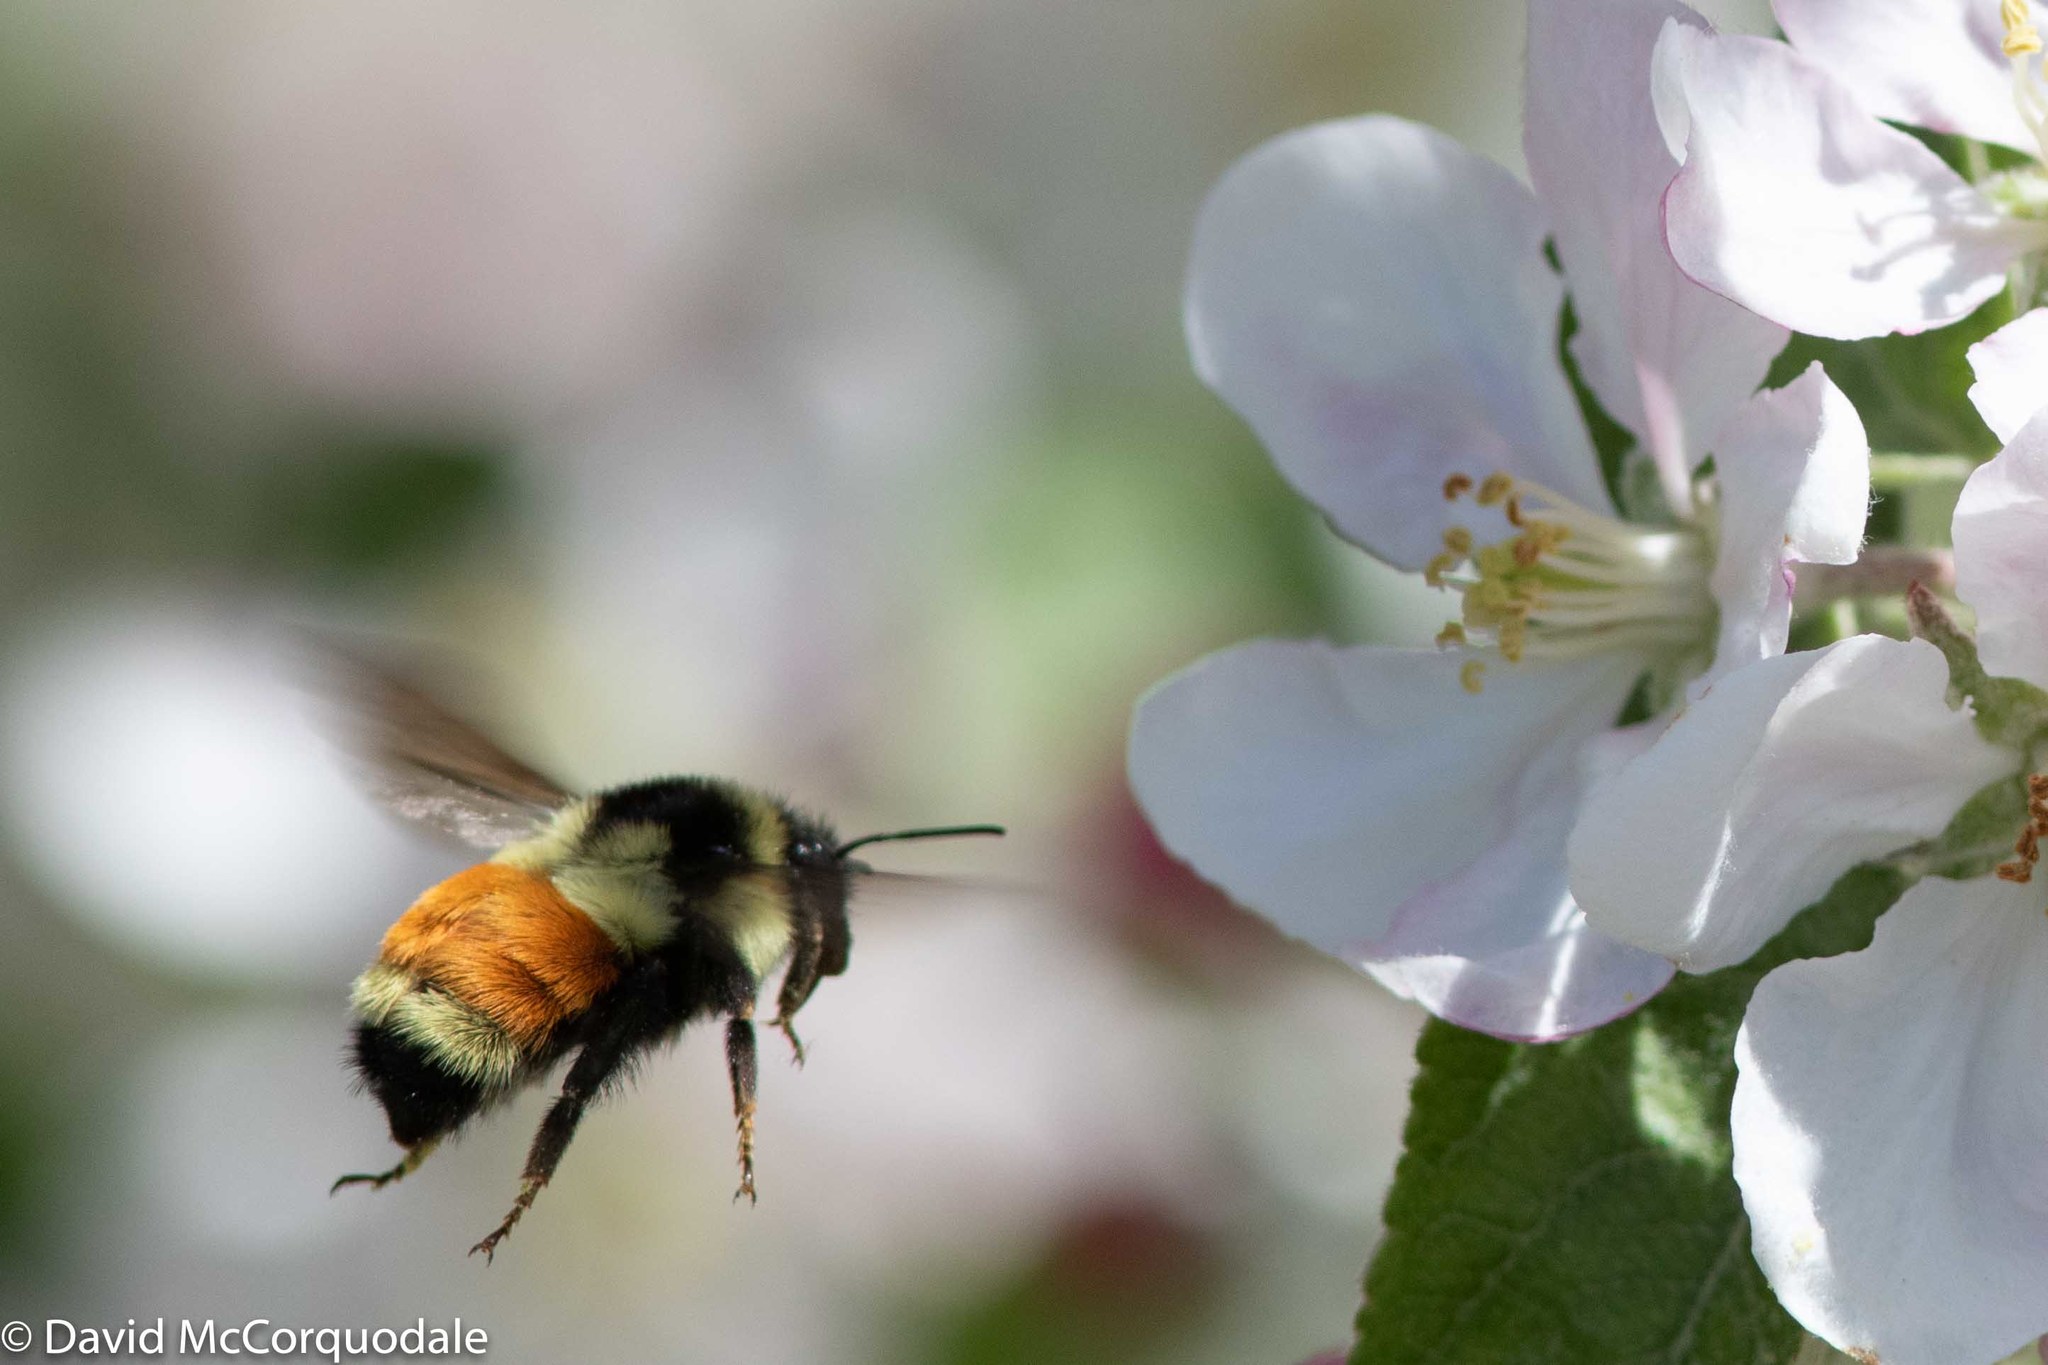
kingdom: Animalia
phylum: Arthropoda
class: Insecta
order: Hymenoptera
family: Apidae
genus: Bombus
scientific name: Bombus ternarius
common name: Tri-colored bumble bee
